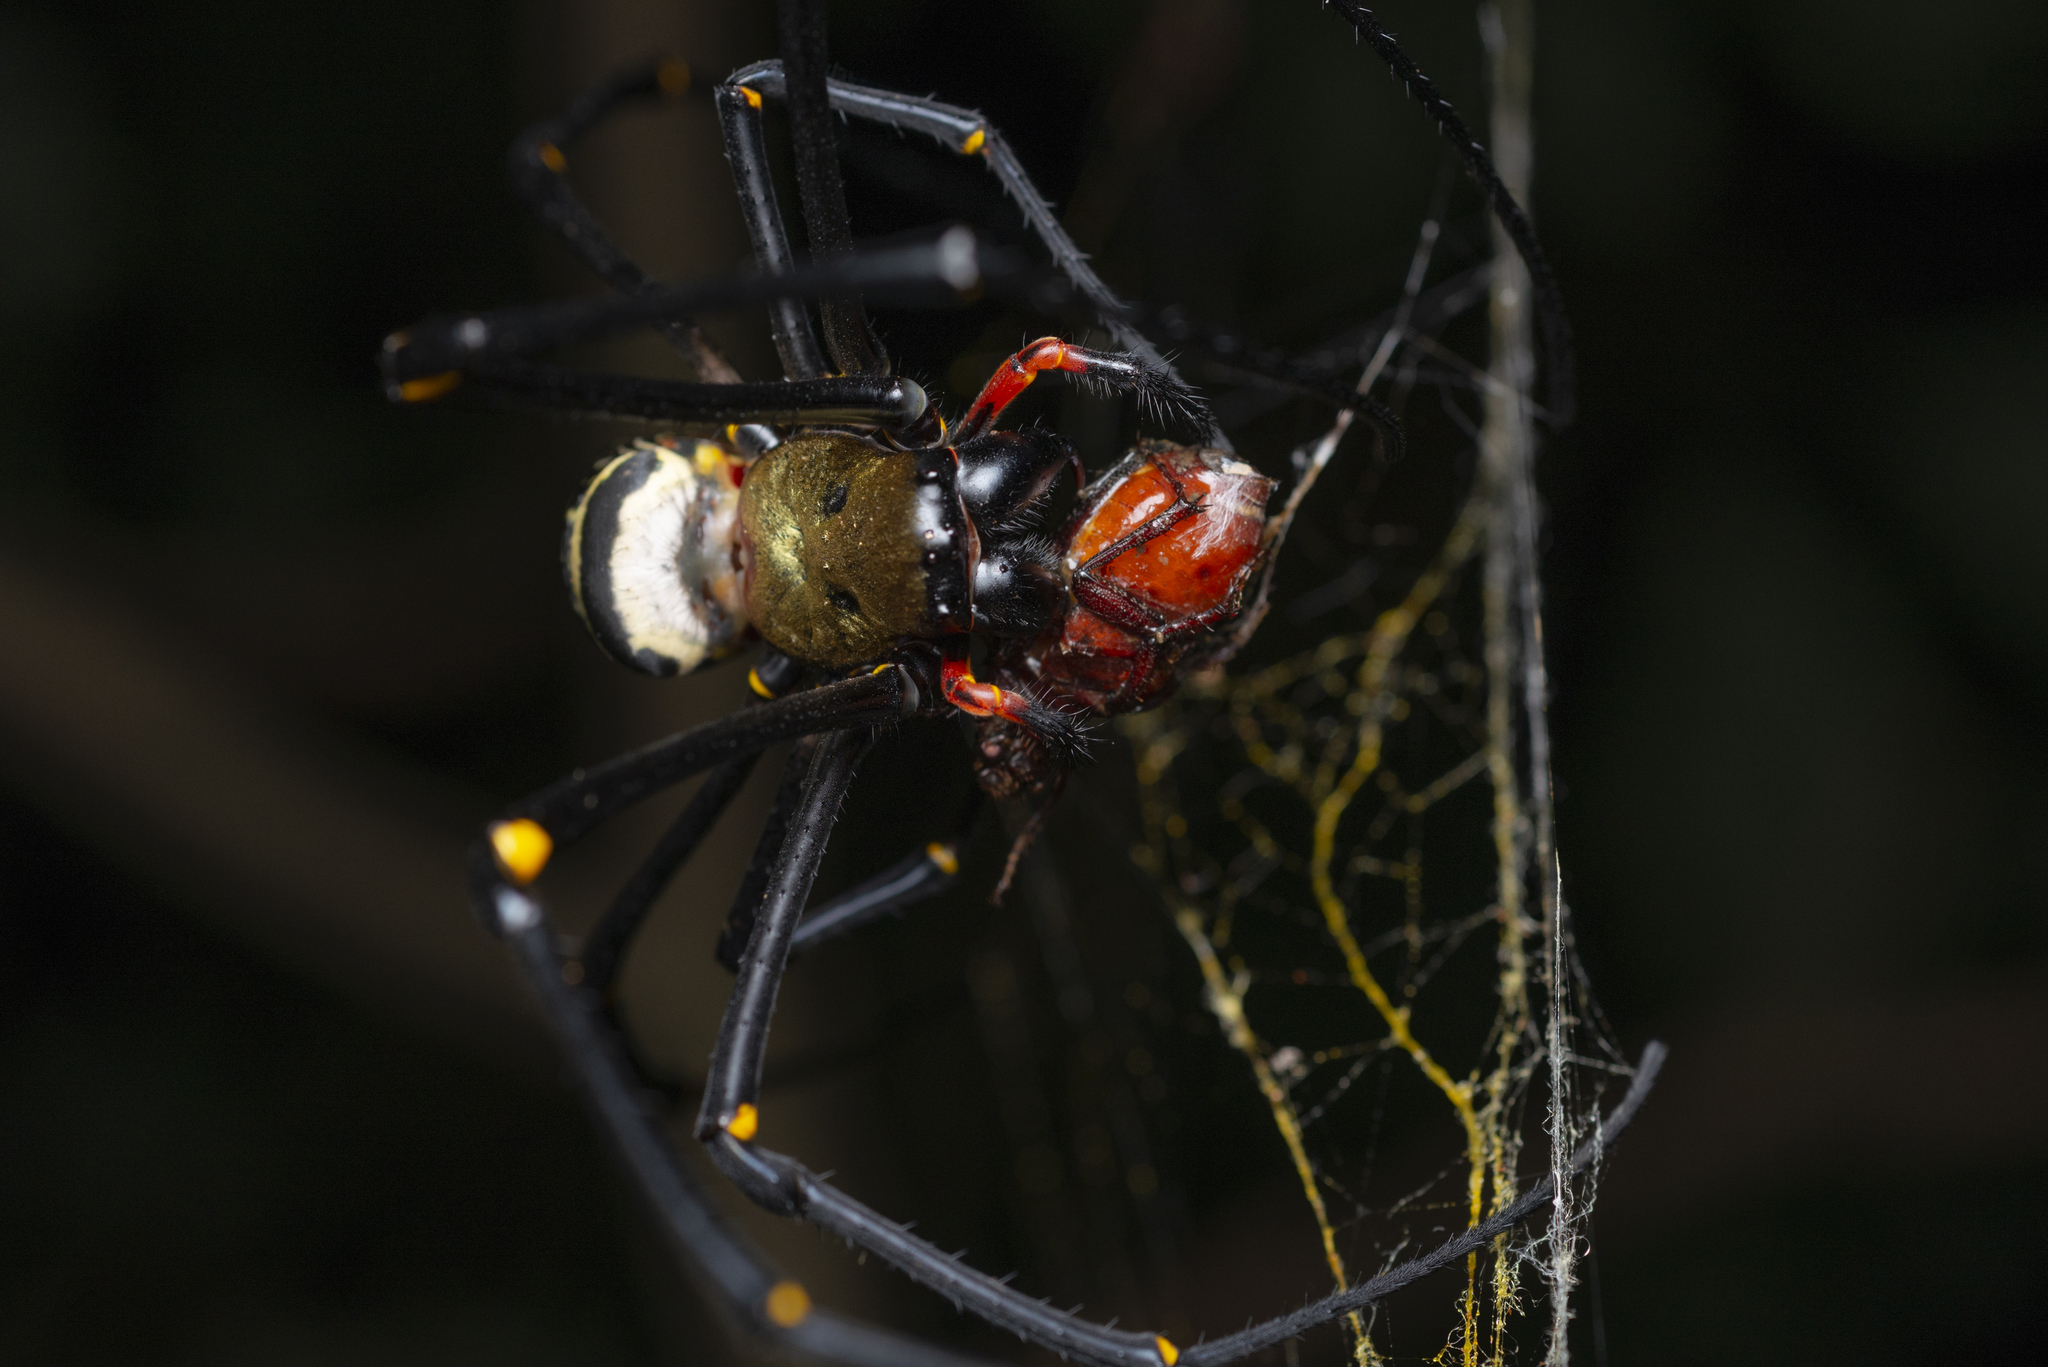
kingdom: Animalia
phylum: Arthropoda
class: Arachnida
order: Araneae
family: Araneidae
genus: Nephila
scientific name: Nephila pilipes
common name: Giant golden orb weaver
